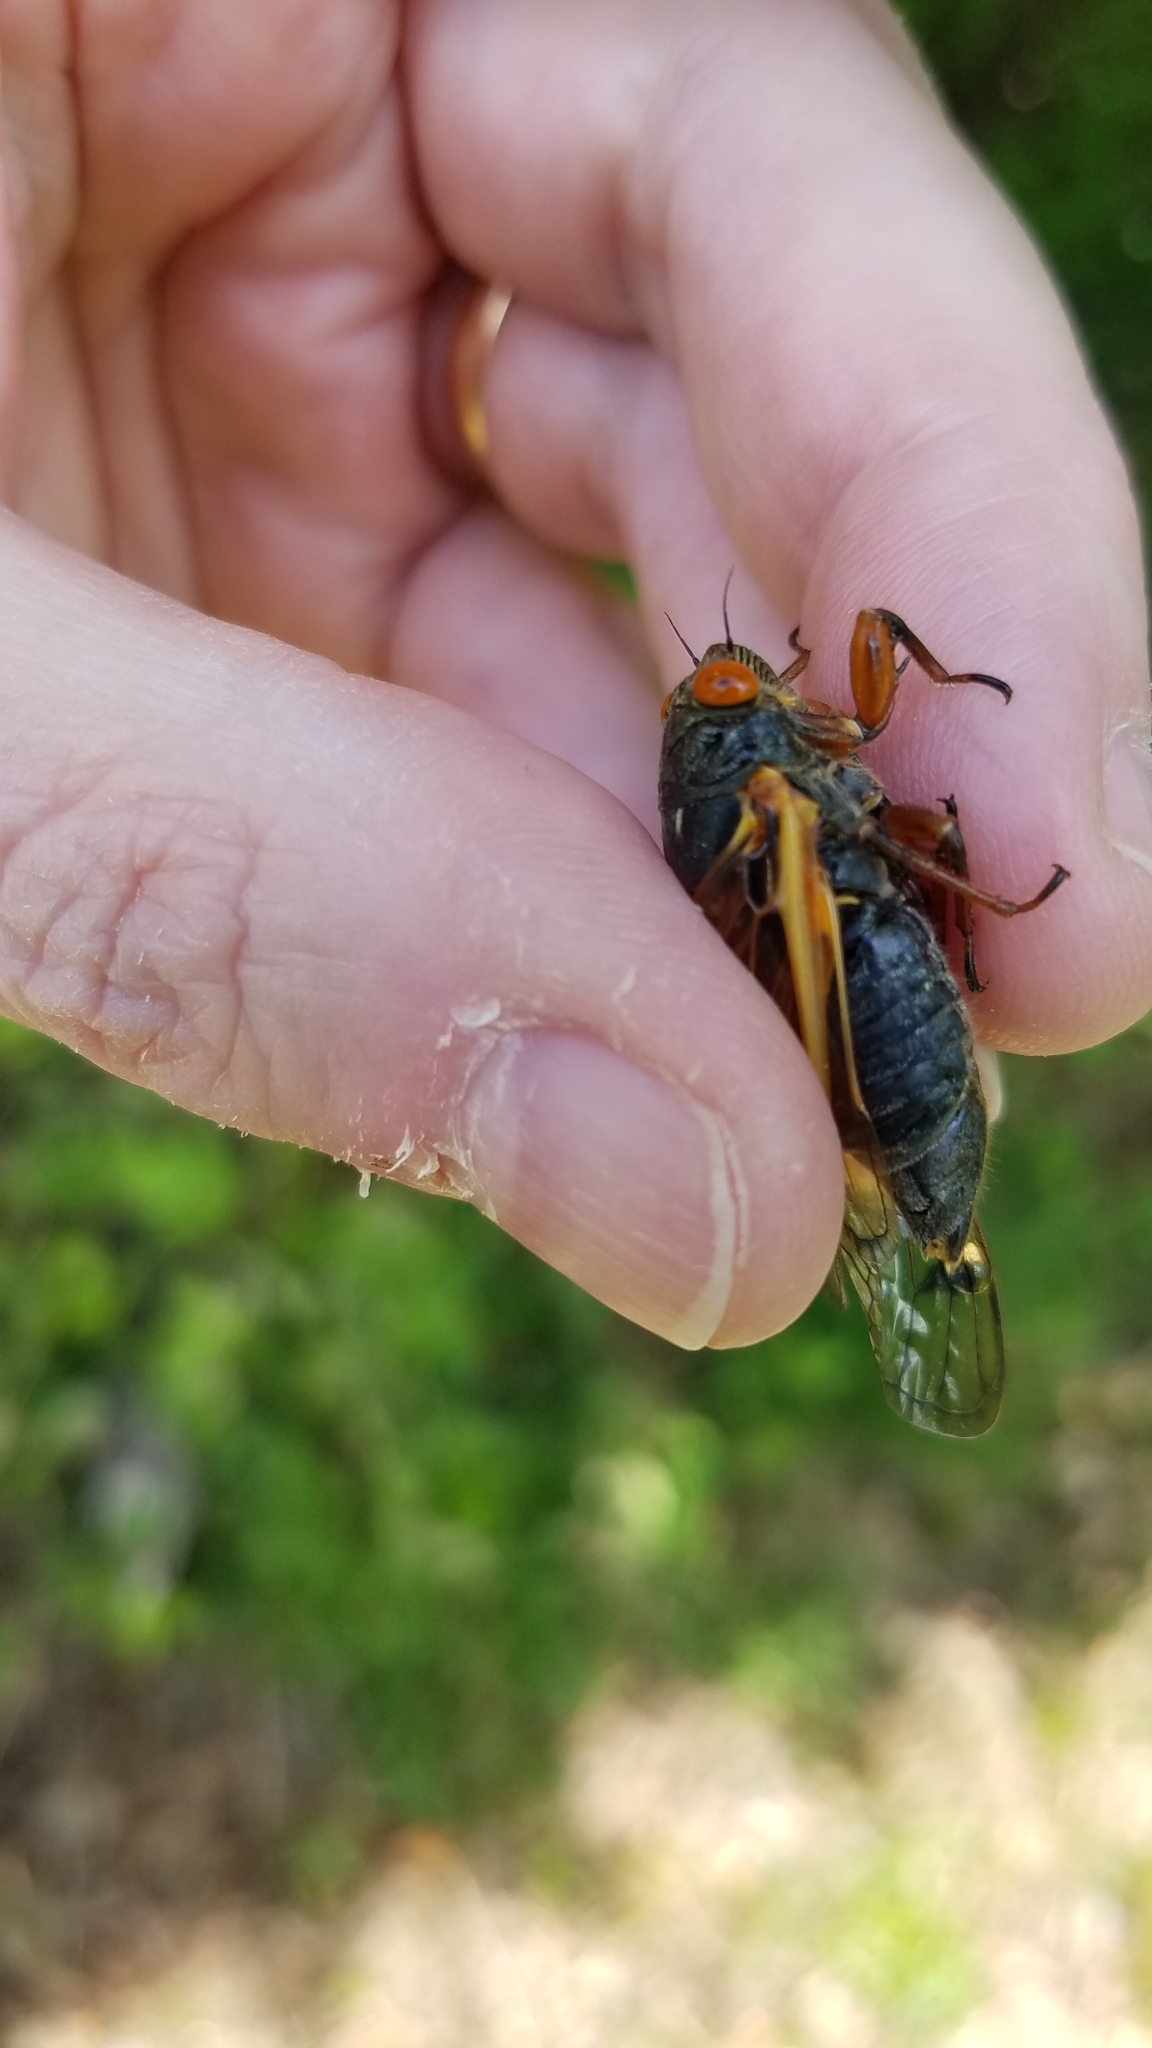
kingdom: Animalia
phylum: Arthropoda
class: Insecta
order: Hemiptera
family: Cicadidae
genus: Magicicada
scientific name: Magicicada cassini
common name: Cassin's 17-year cicada
